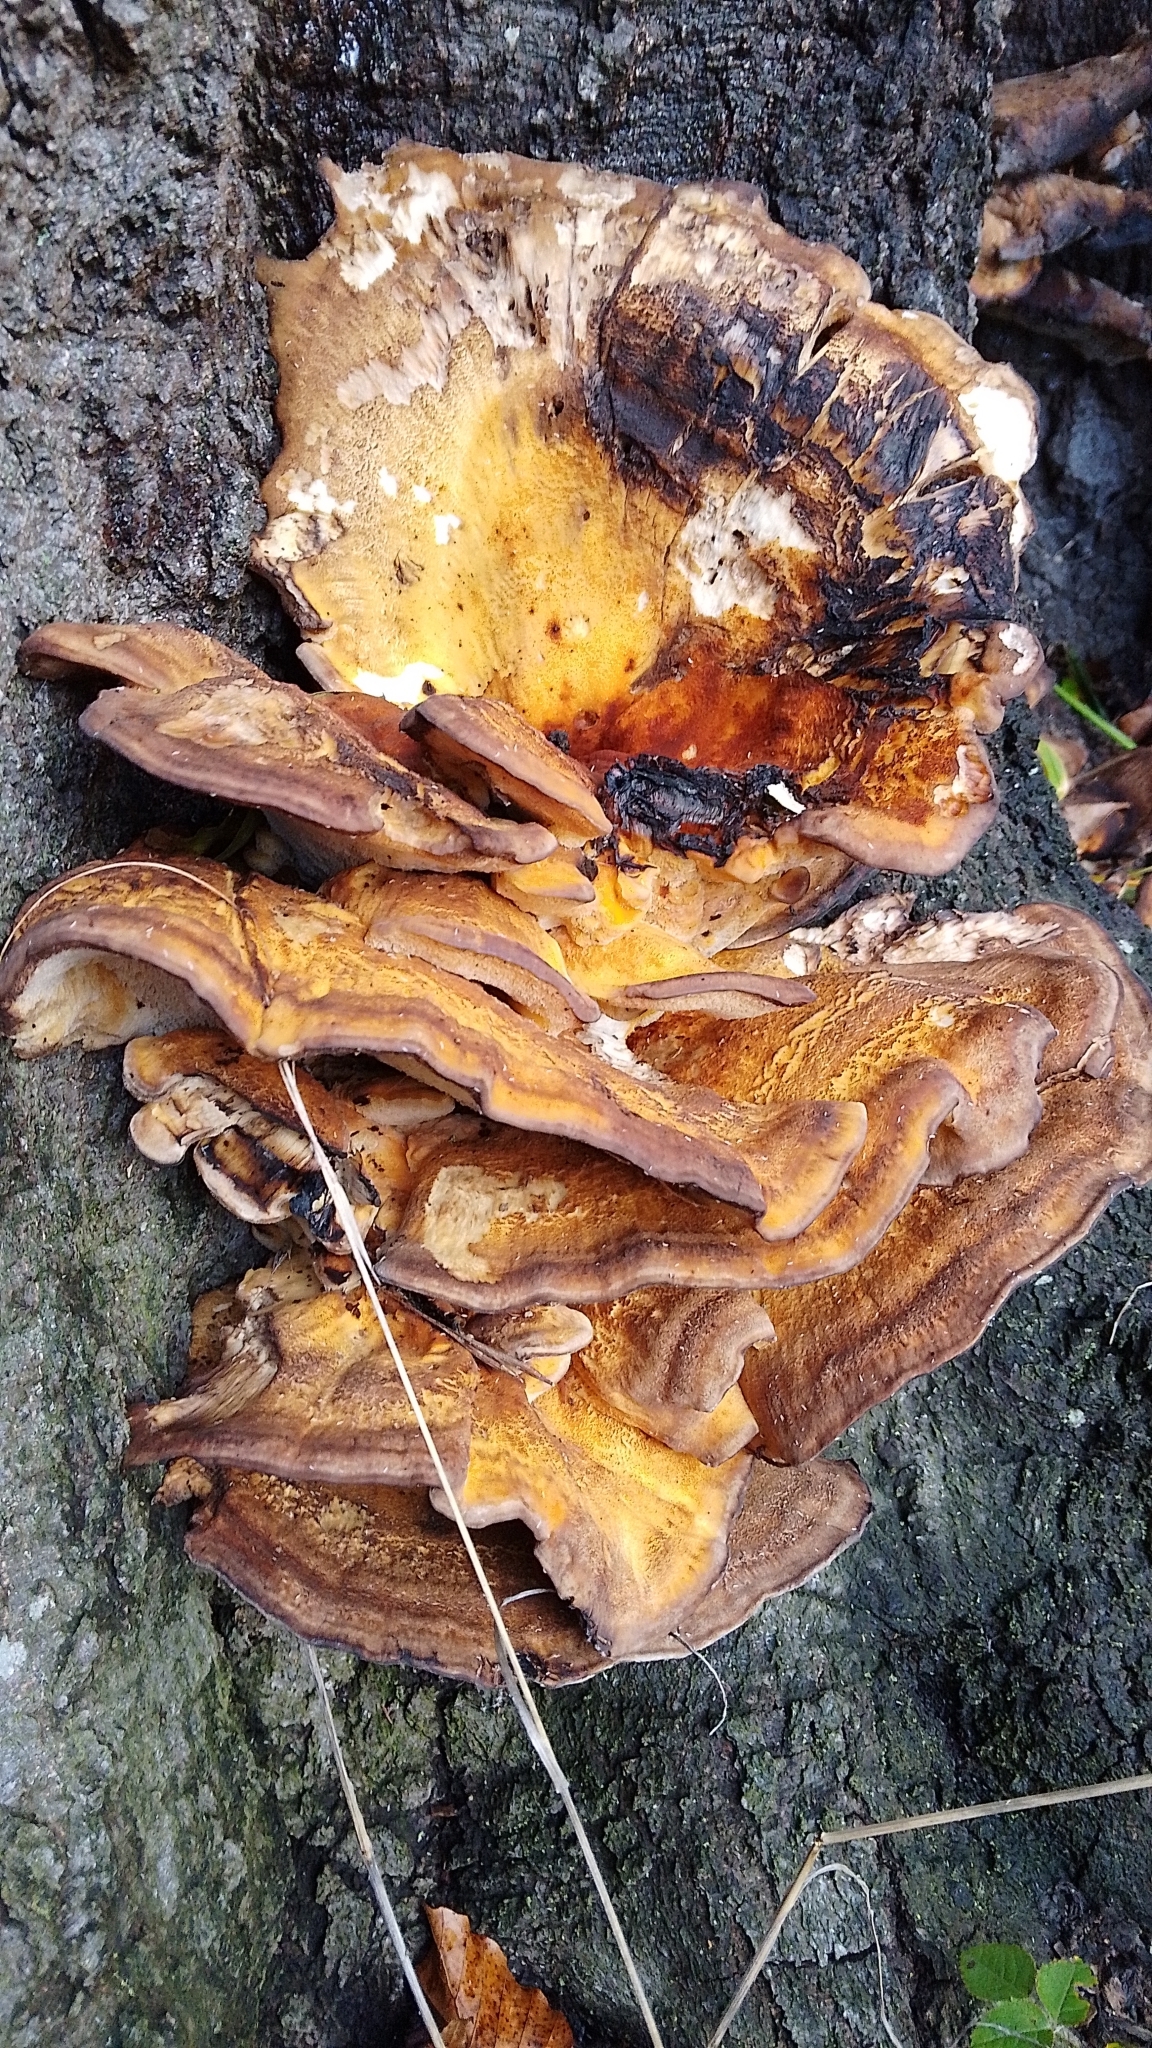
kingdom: Fungi
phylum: Basidiomycota
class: Agaricomycetes
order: Polyporales
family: Meripilaceae
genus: Meripilus
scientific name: Meripilus giganteus
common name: Giant polypore
